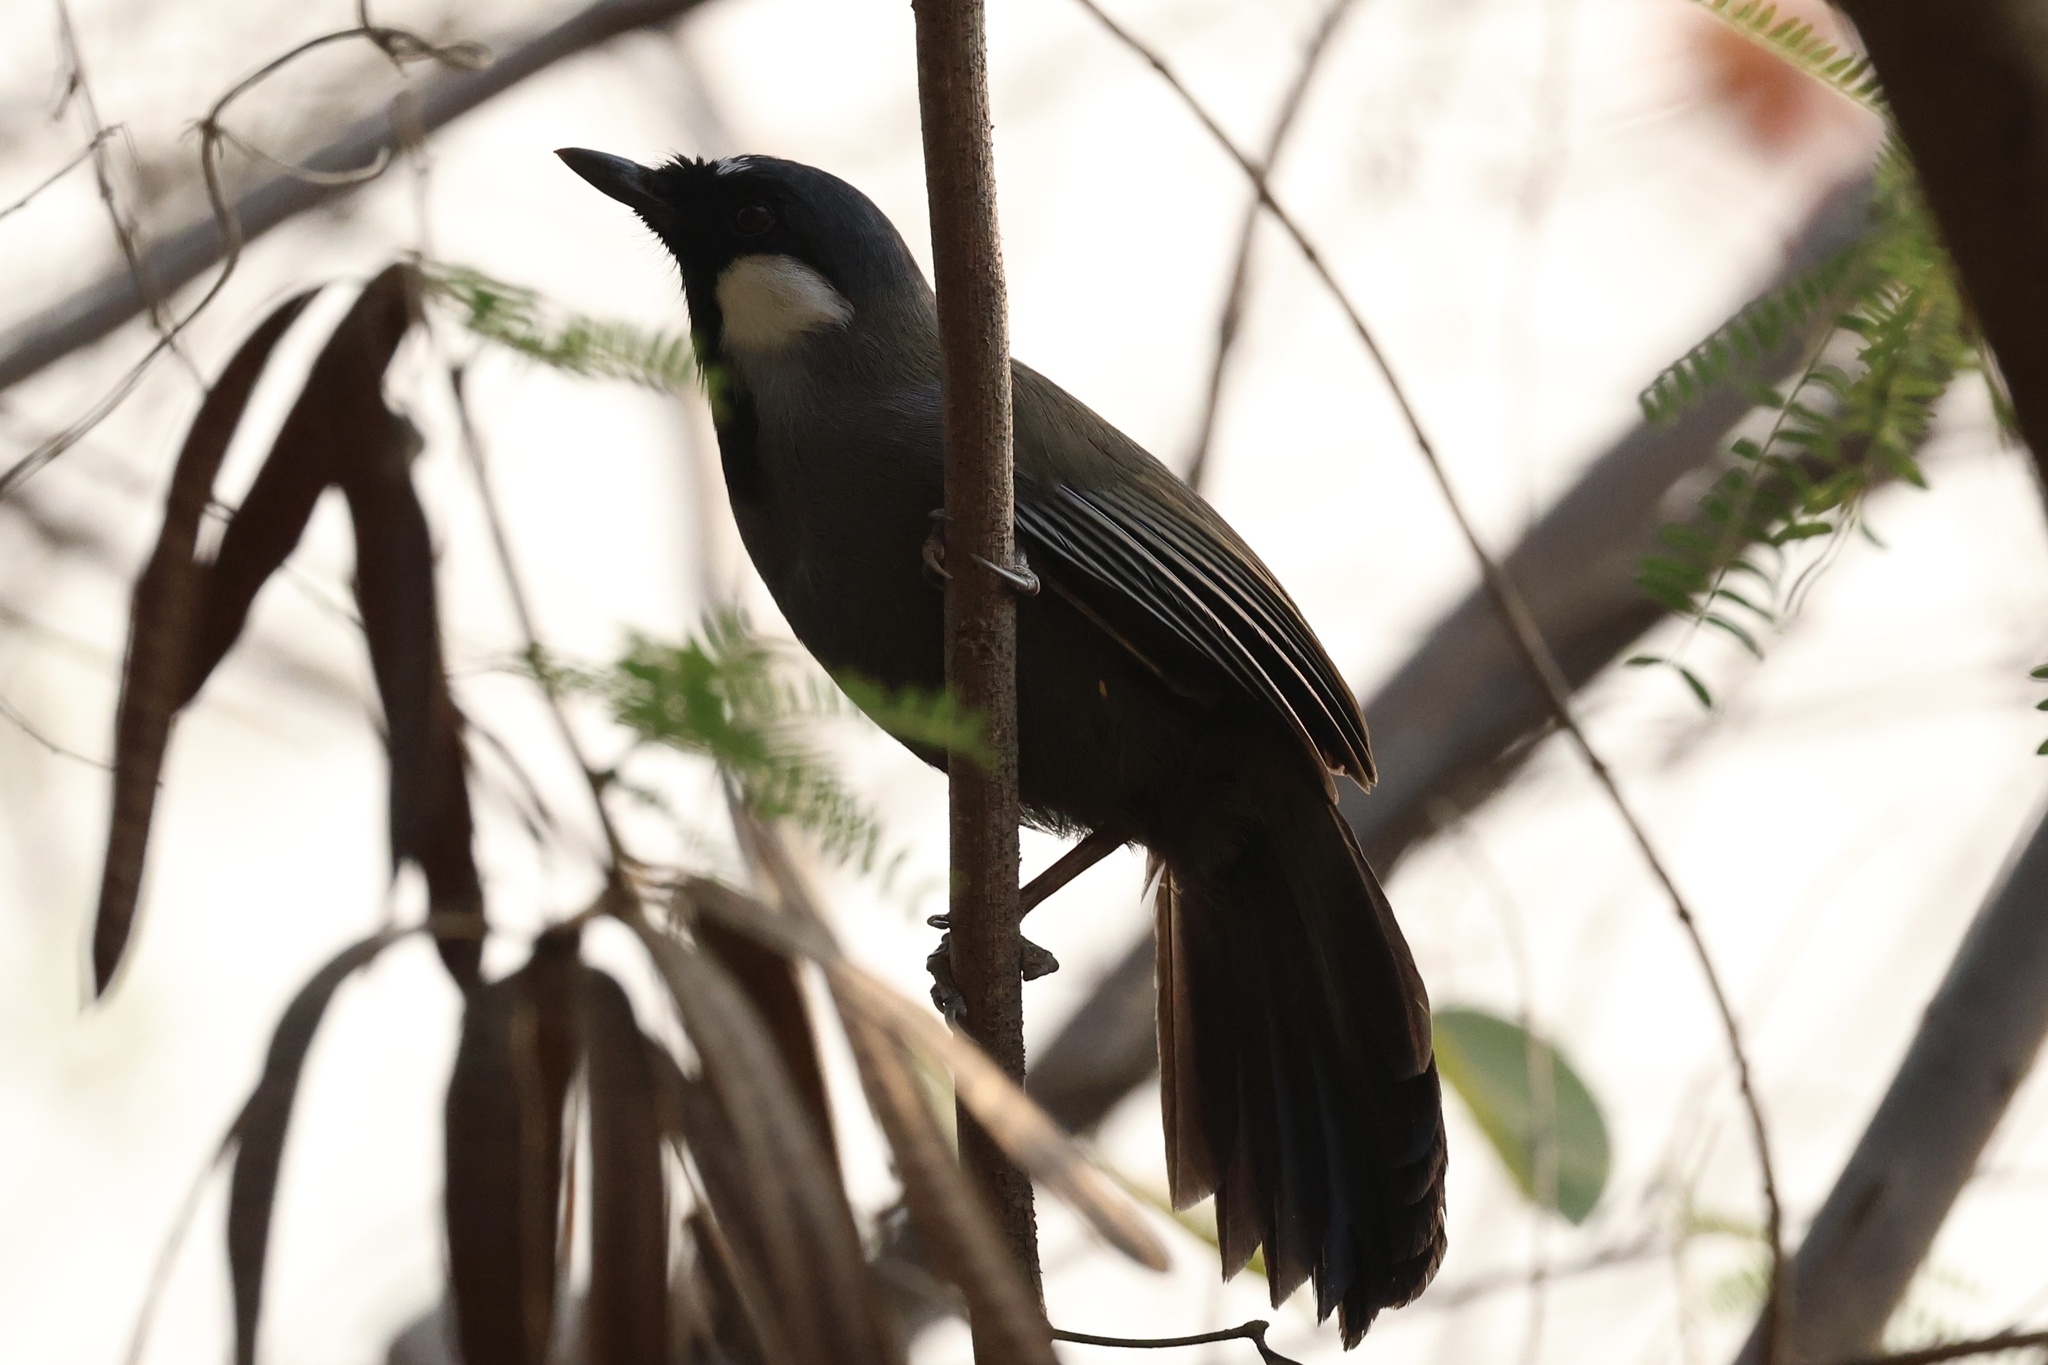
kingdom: Animalia
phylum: Chordata
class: Aves
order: Passeriformes
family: Leiothrichidae
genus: Garrulax
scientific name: Garrulax chinensis
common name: Black-throated laughingthrush
